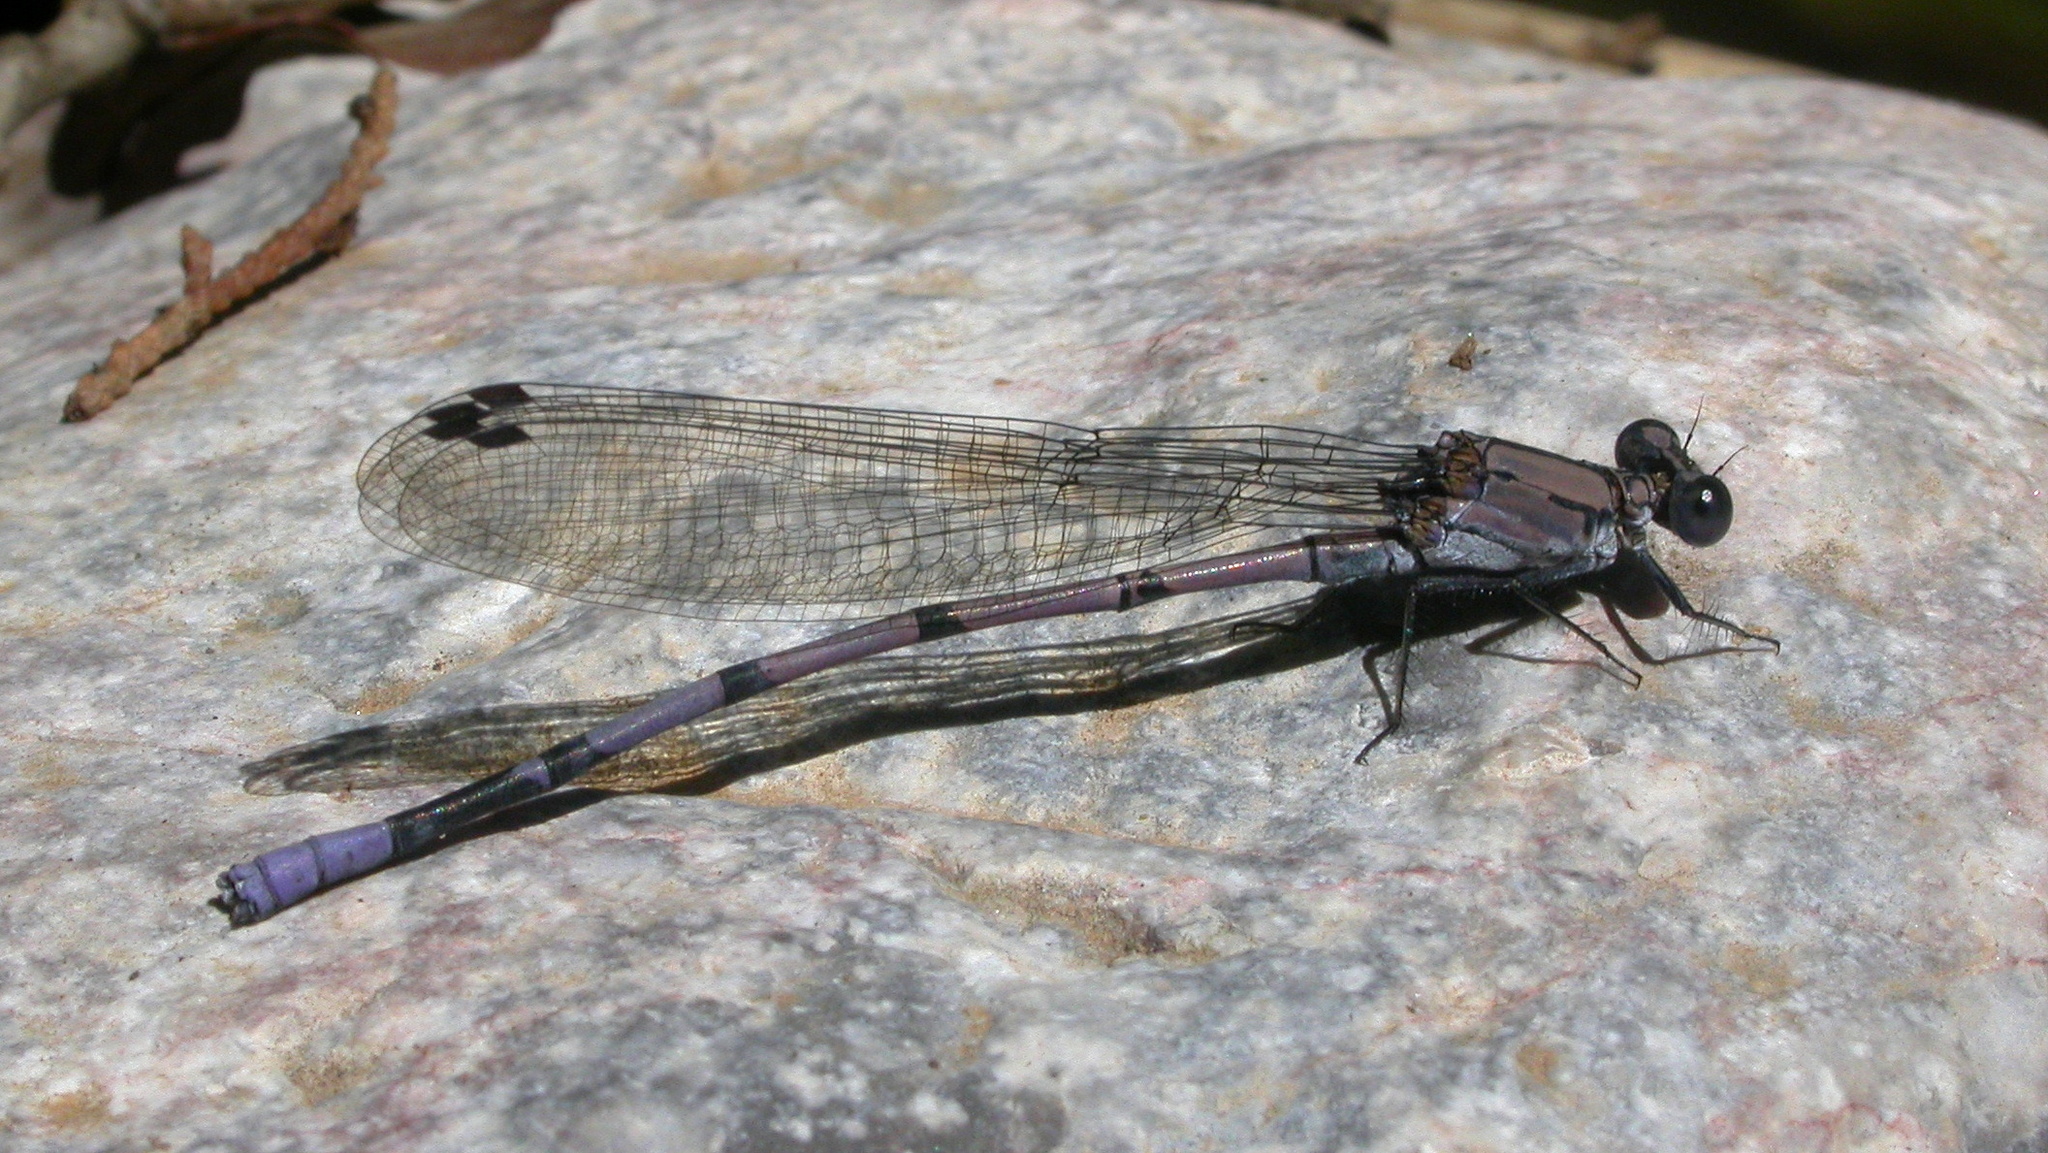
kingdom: Animalia
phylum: Arthropoda
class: Insecta
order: Odonata
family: Coenagrionidae
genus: Argia
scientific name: Argia tonto
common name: Tonto dancer
